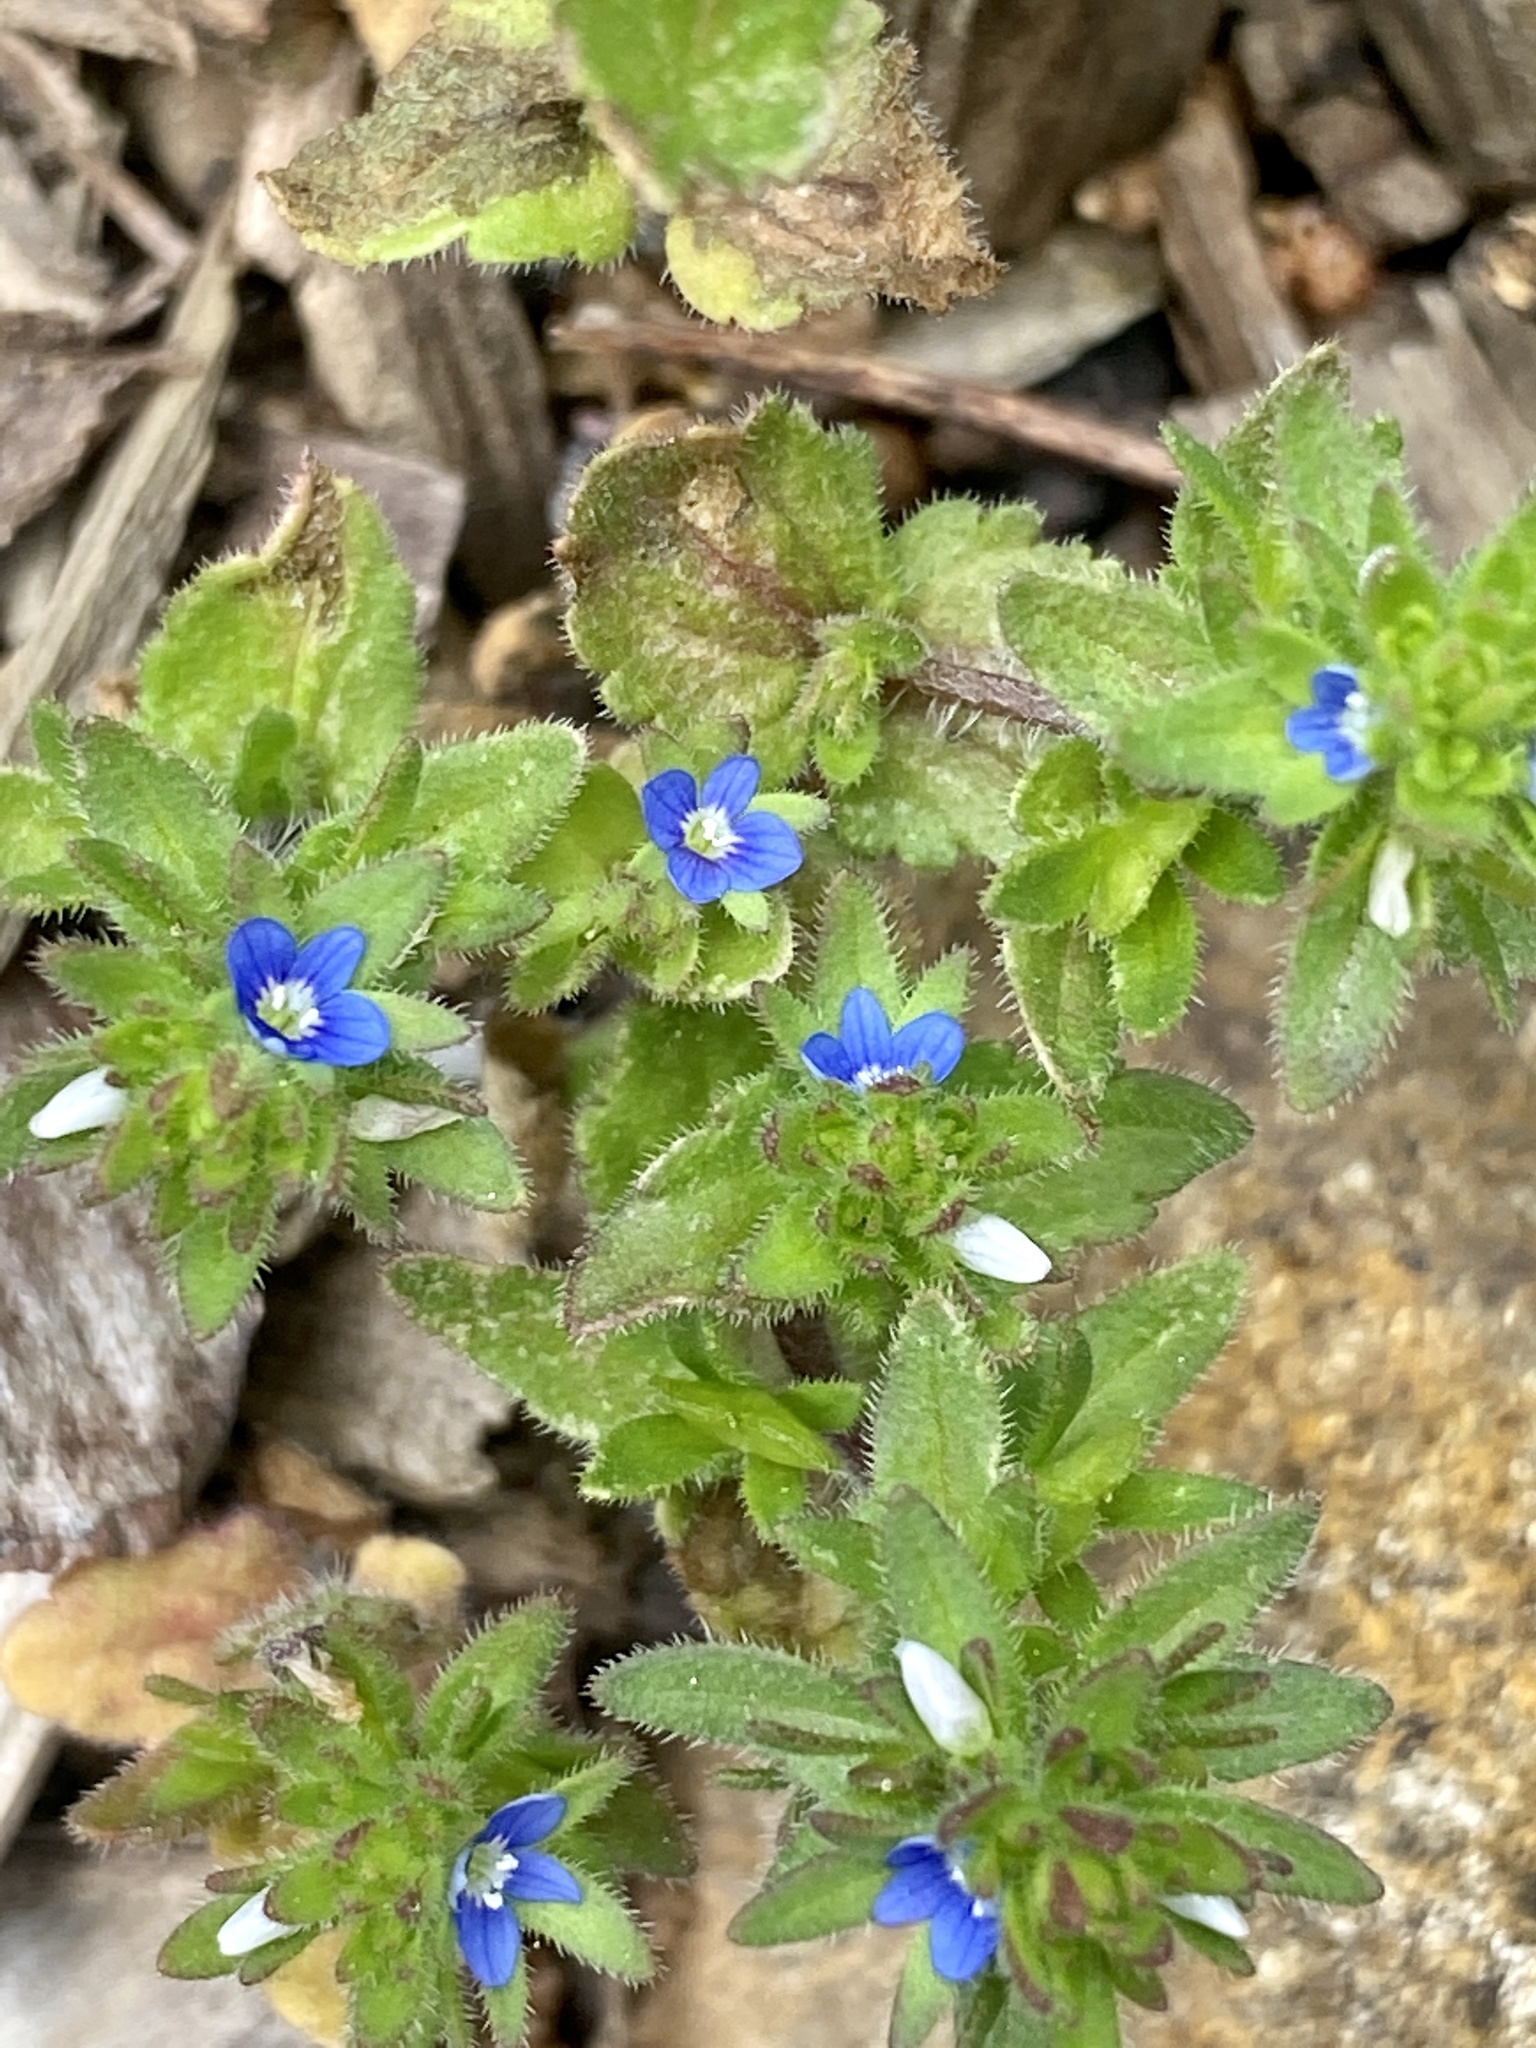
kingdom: Plantae
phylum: Tracheophyta
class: Magnoliopsida
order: Lamiales
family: Plantaginaceae
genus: Veronica
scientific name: Veronica arvensis
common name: Corn speedwell
